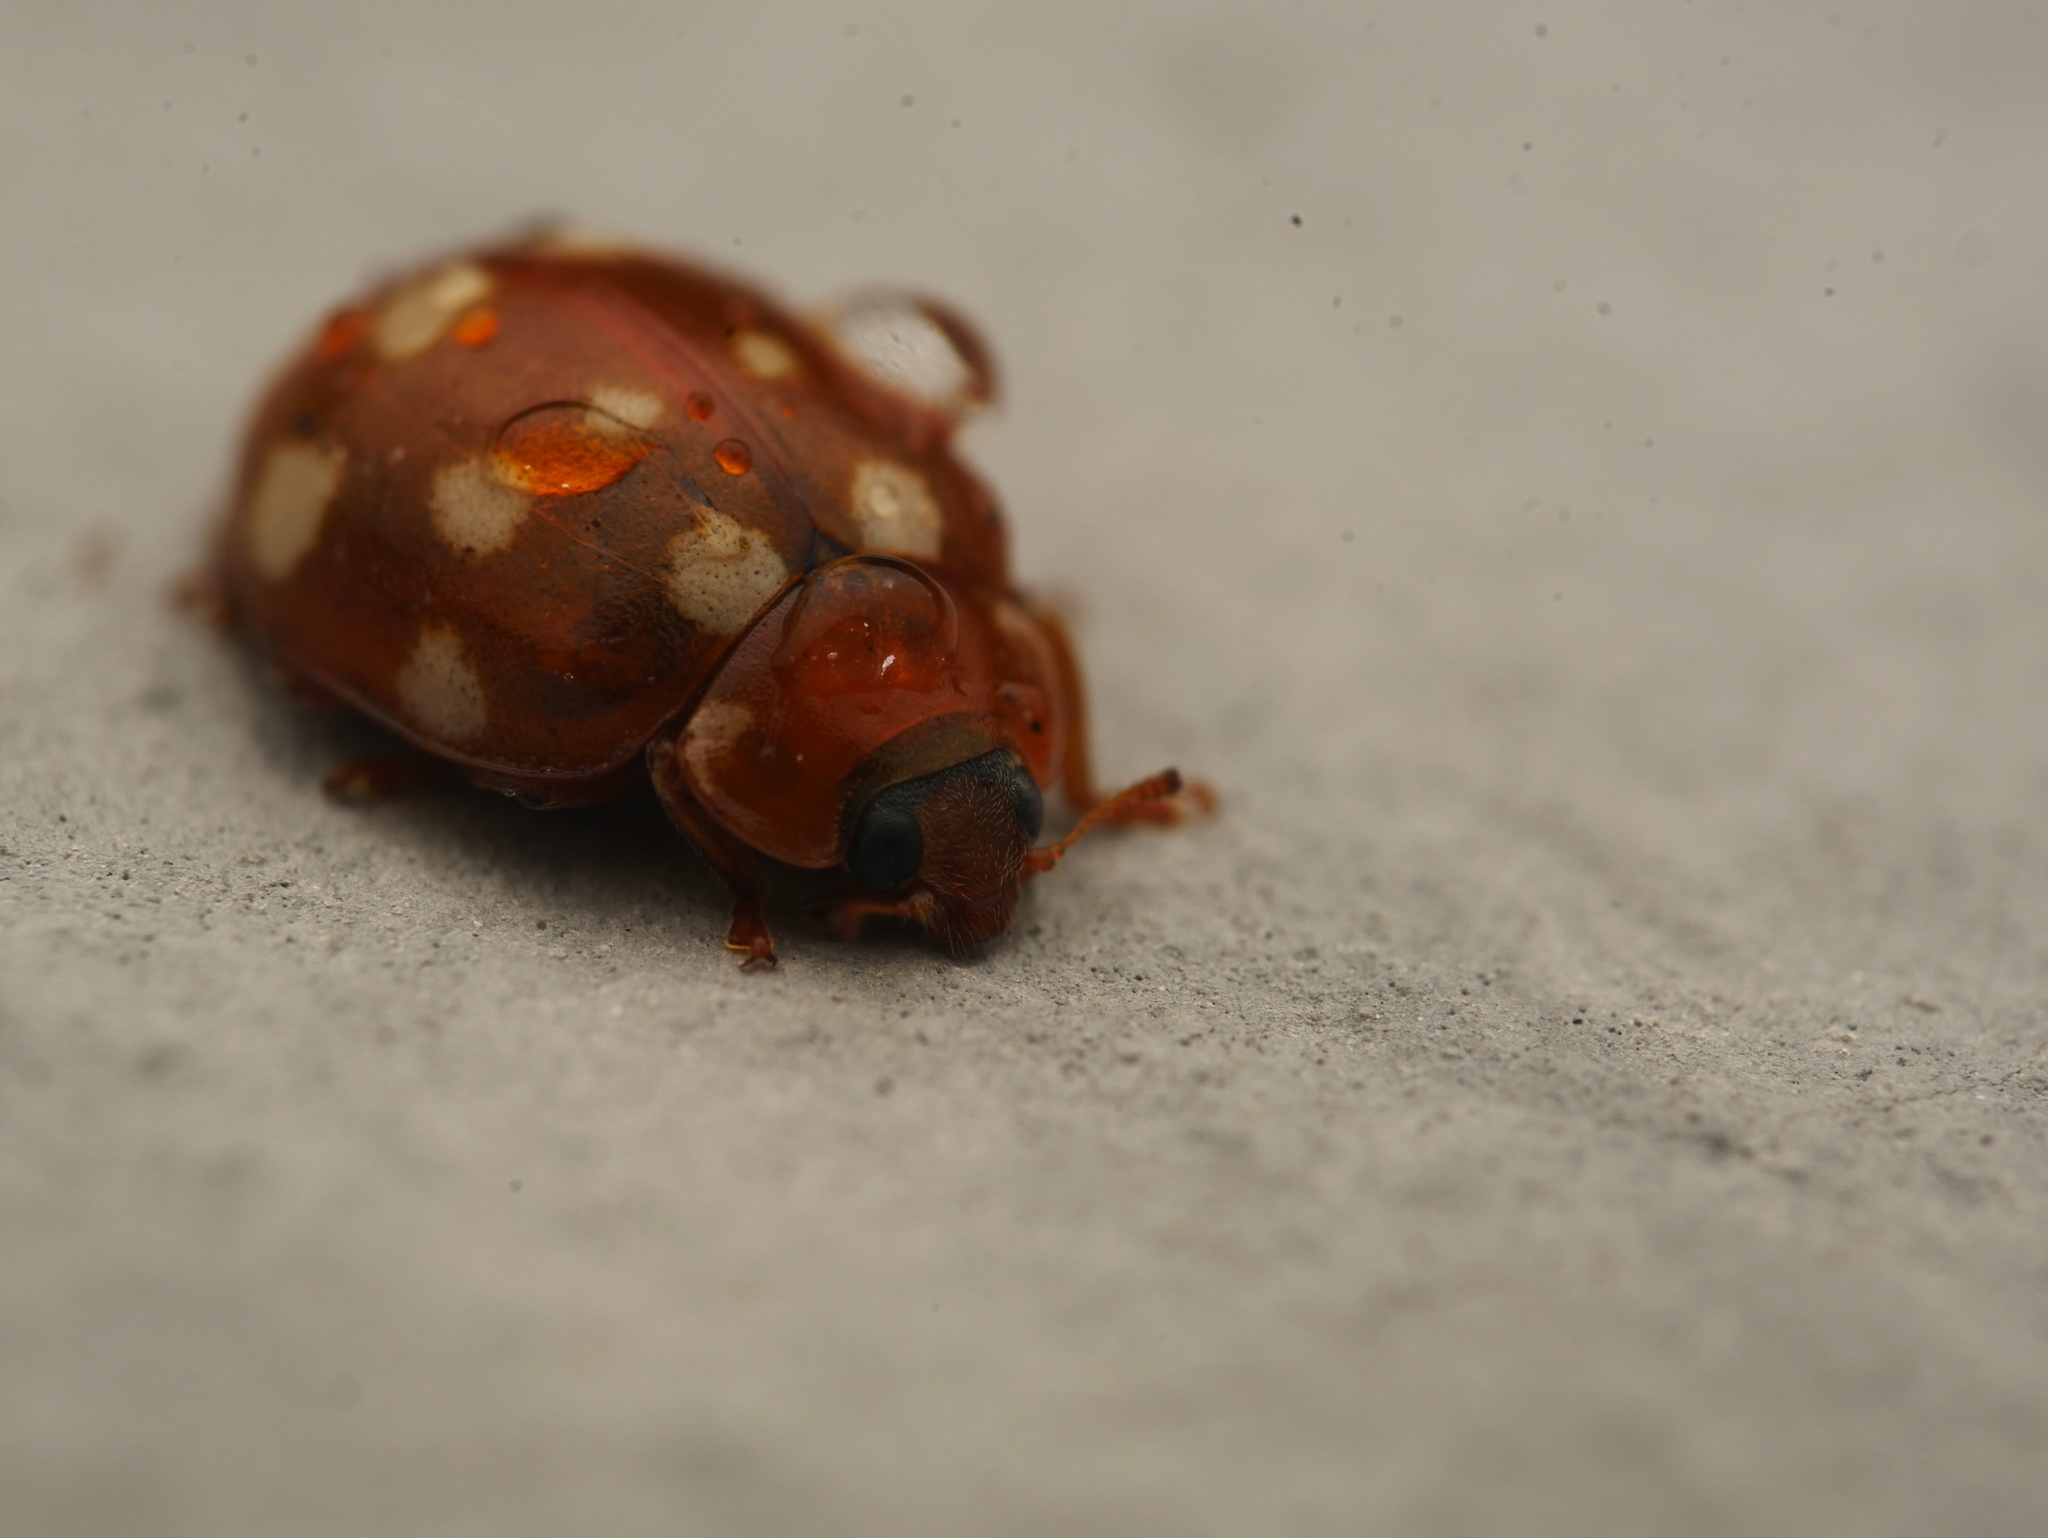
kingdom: Animalia
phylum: Arthropoda
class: Insecta
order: Coleoptera
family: Coccinellidae
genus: Calvia
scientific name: Calvia quatuordecimguttata
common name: Cream-spot ladybird
